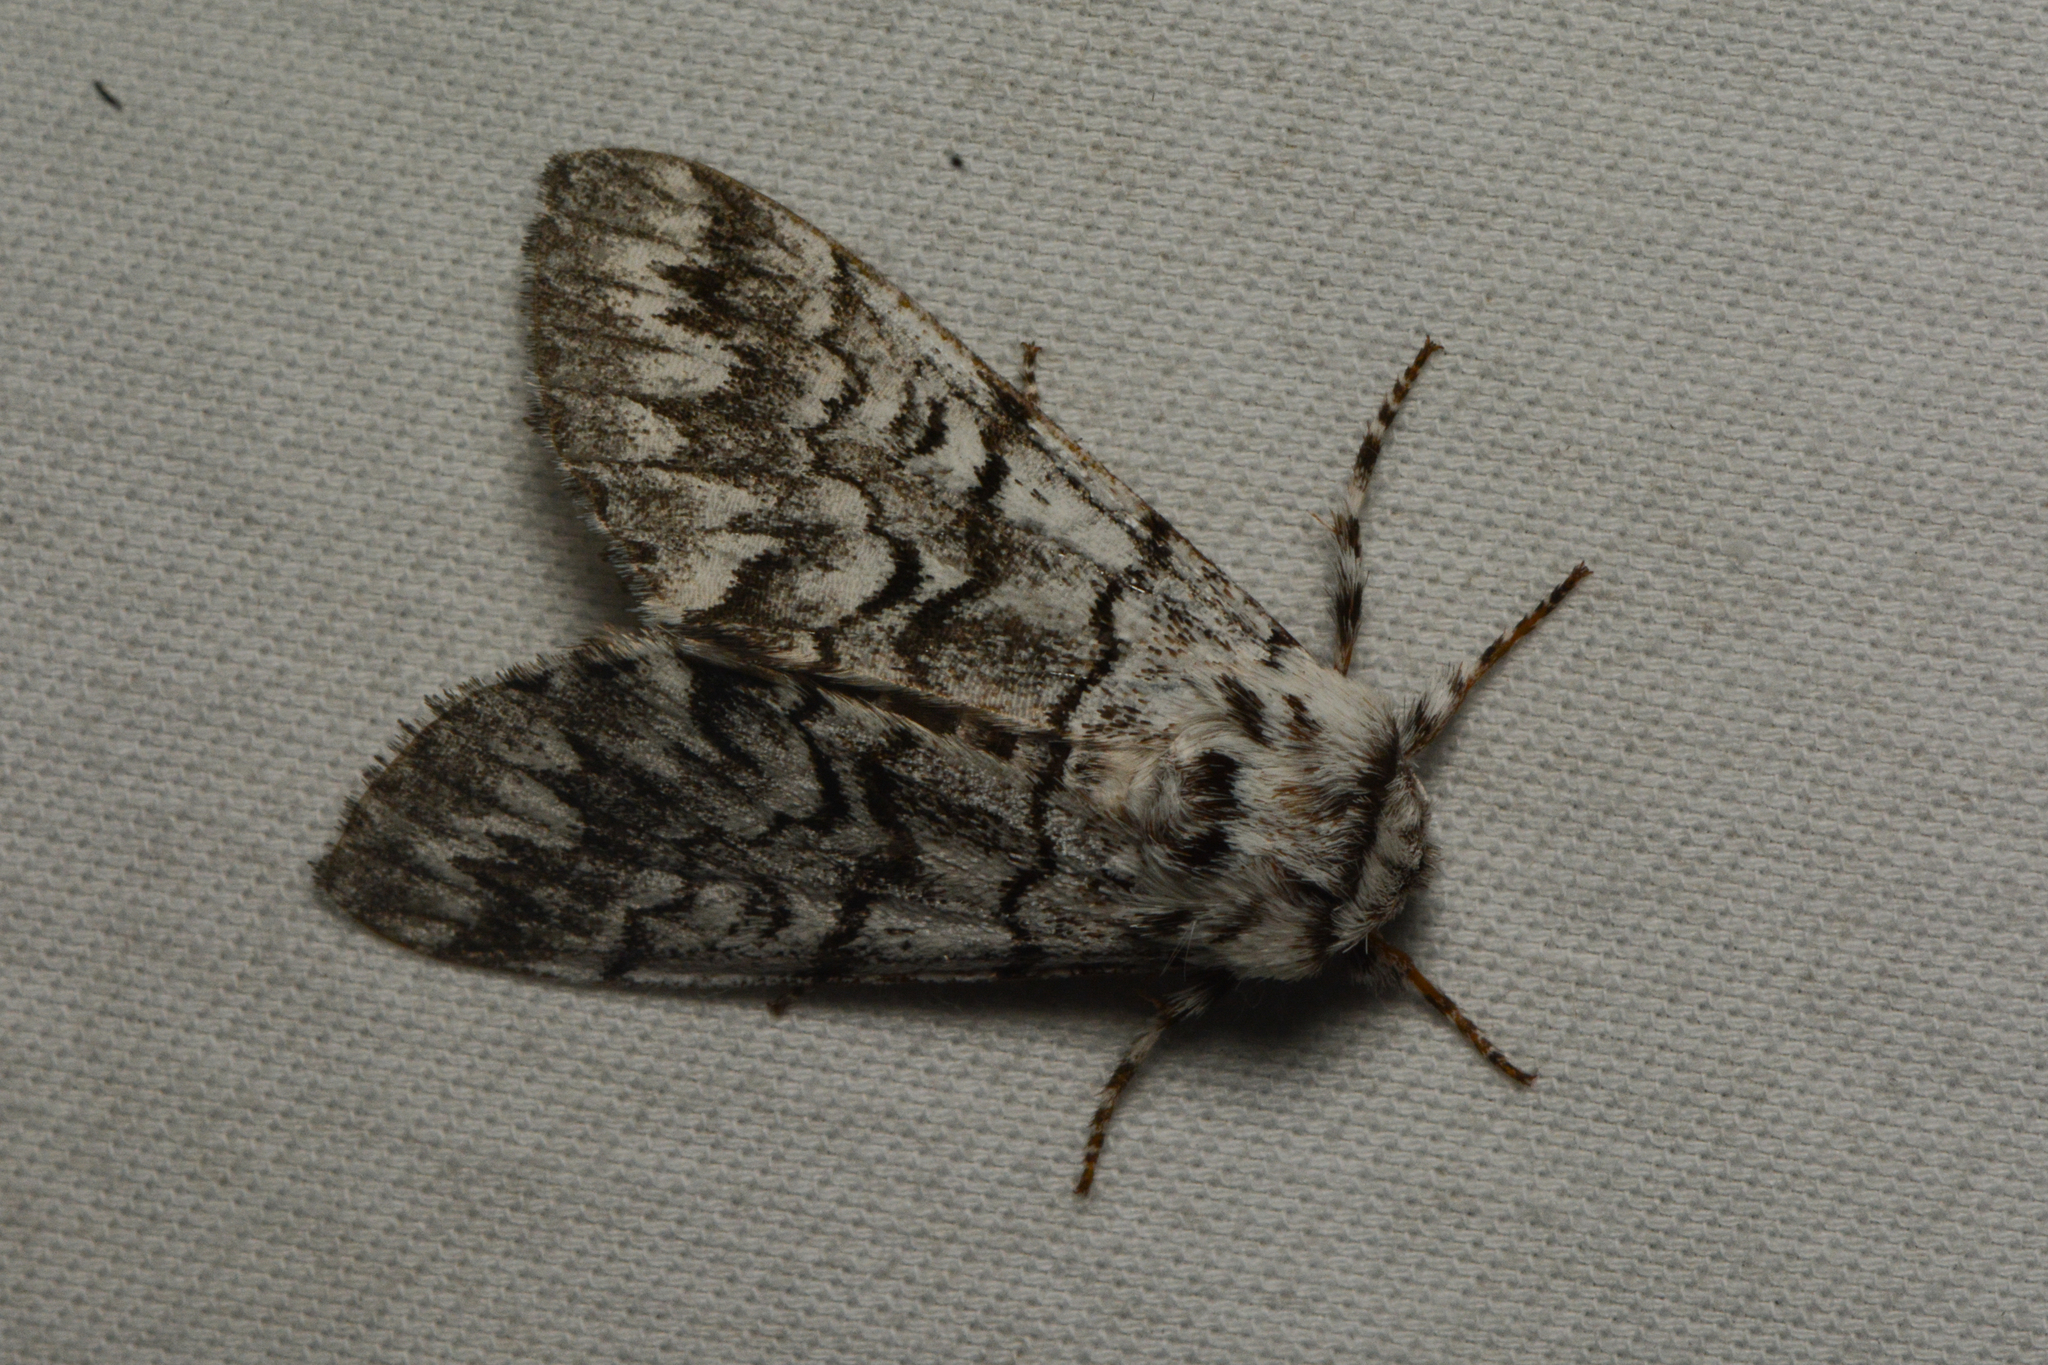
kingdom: Animalia
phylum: Arthropoda
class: Insecta
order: Lepidoptera
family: Noctuidae
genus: Panthea
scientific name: Panthea virginarius
